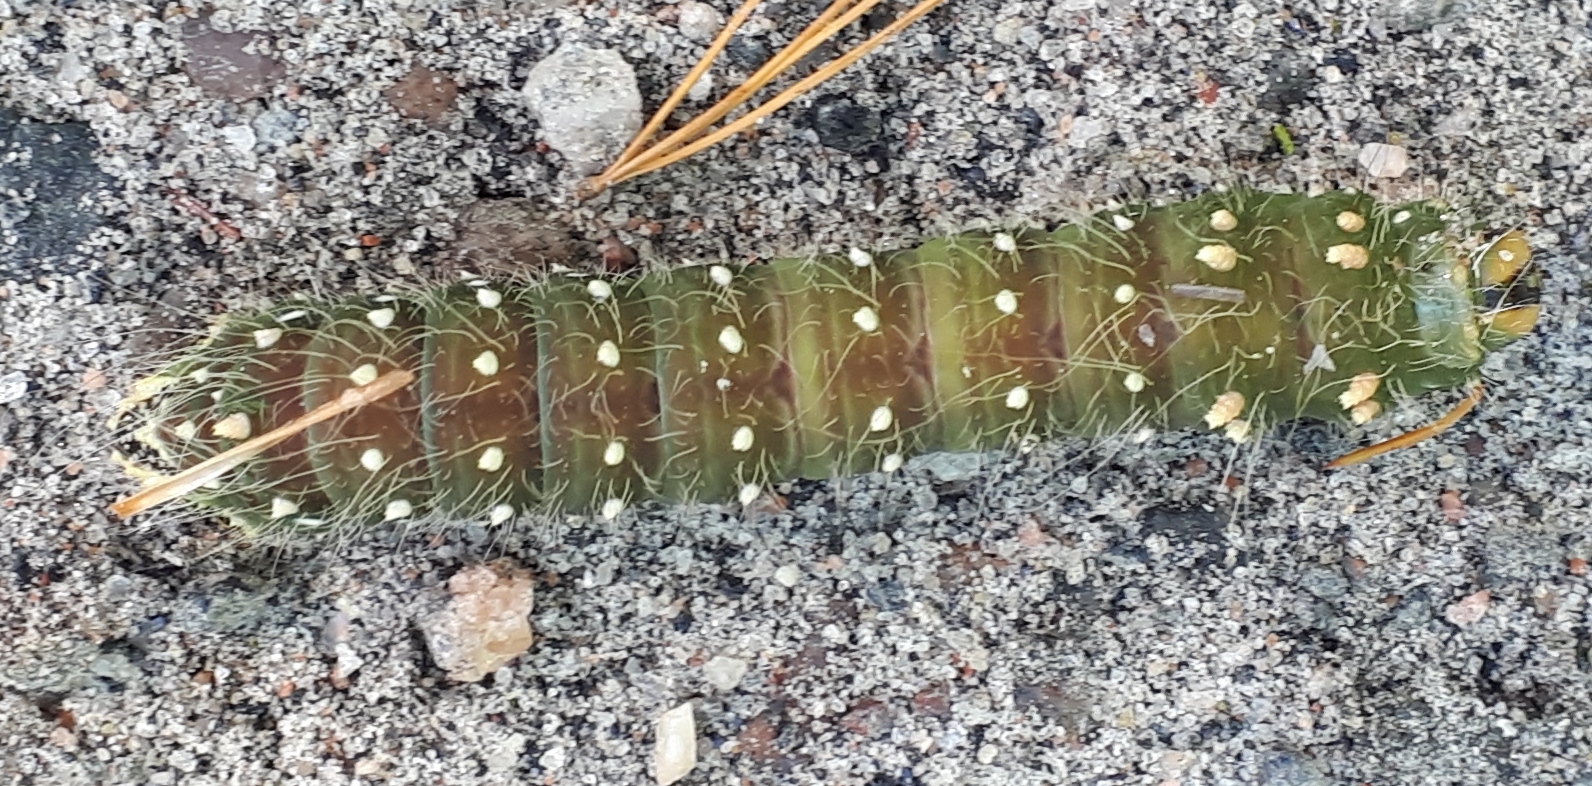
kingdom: Animalia
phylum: Arthropoda
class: Insecta
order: Lepidoptera
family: Saturniidae
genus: Eacles
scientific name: Eacles
